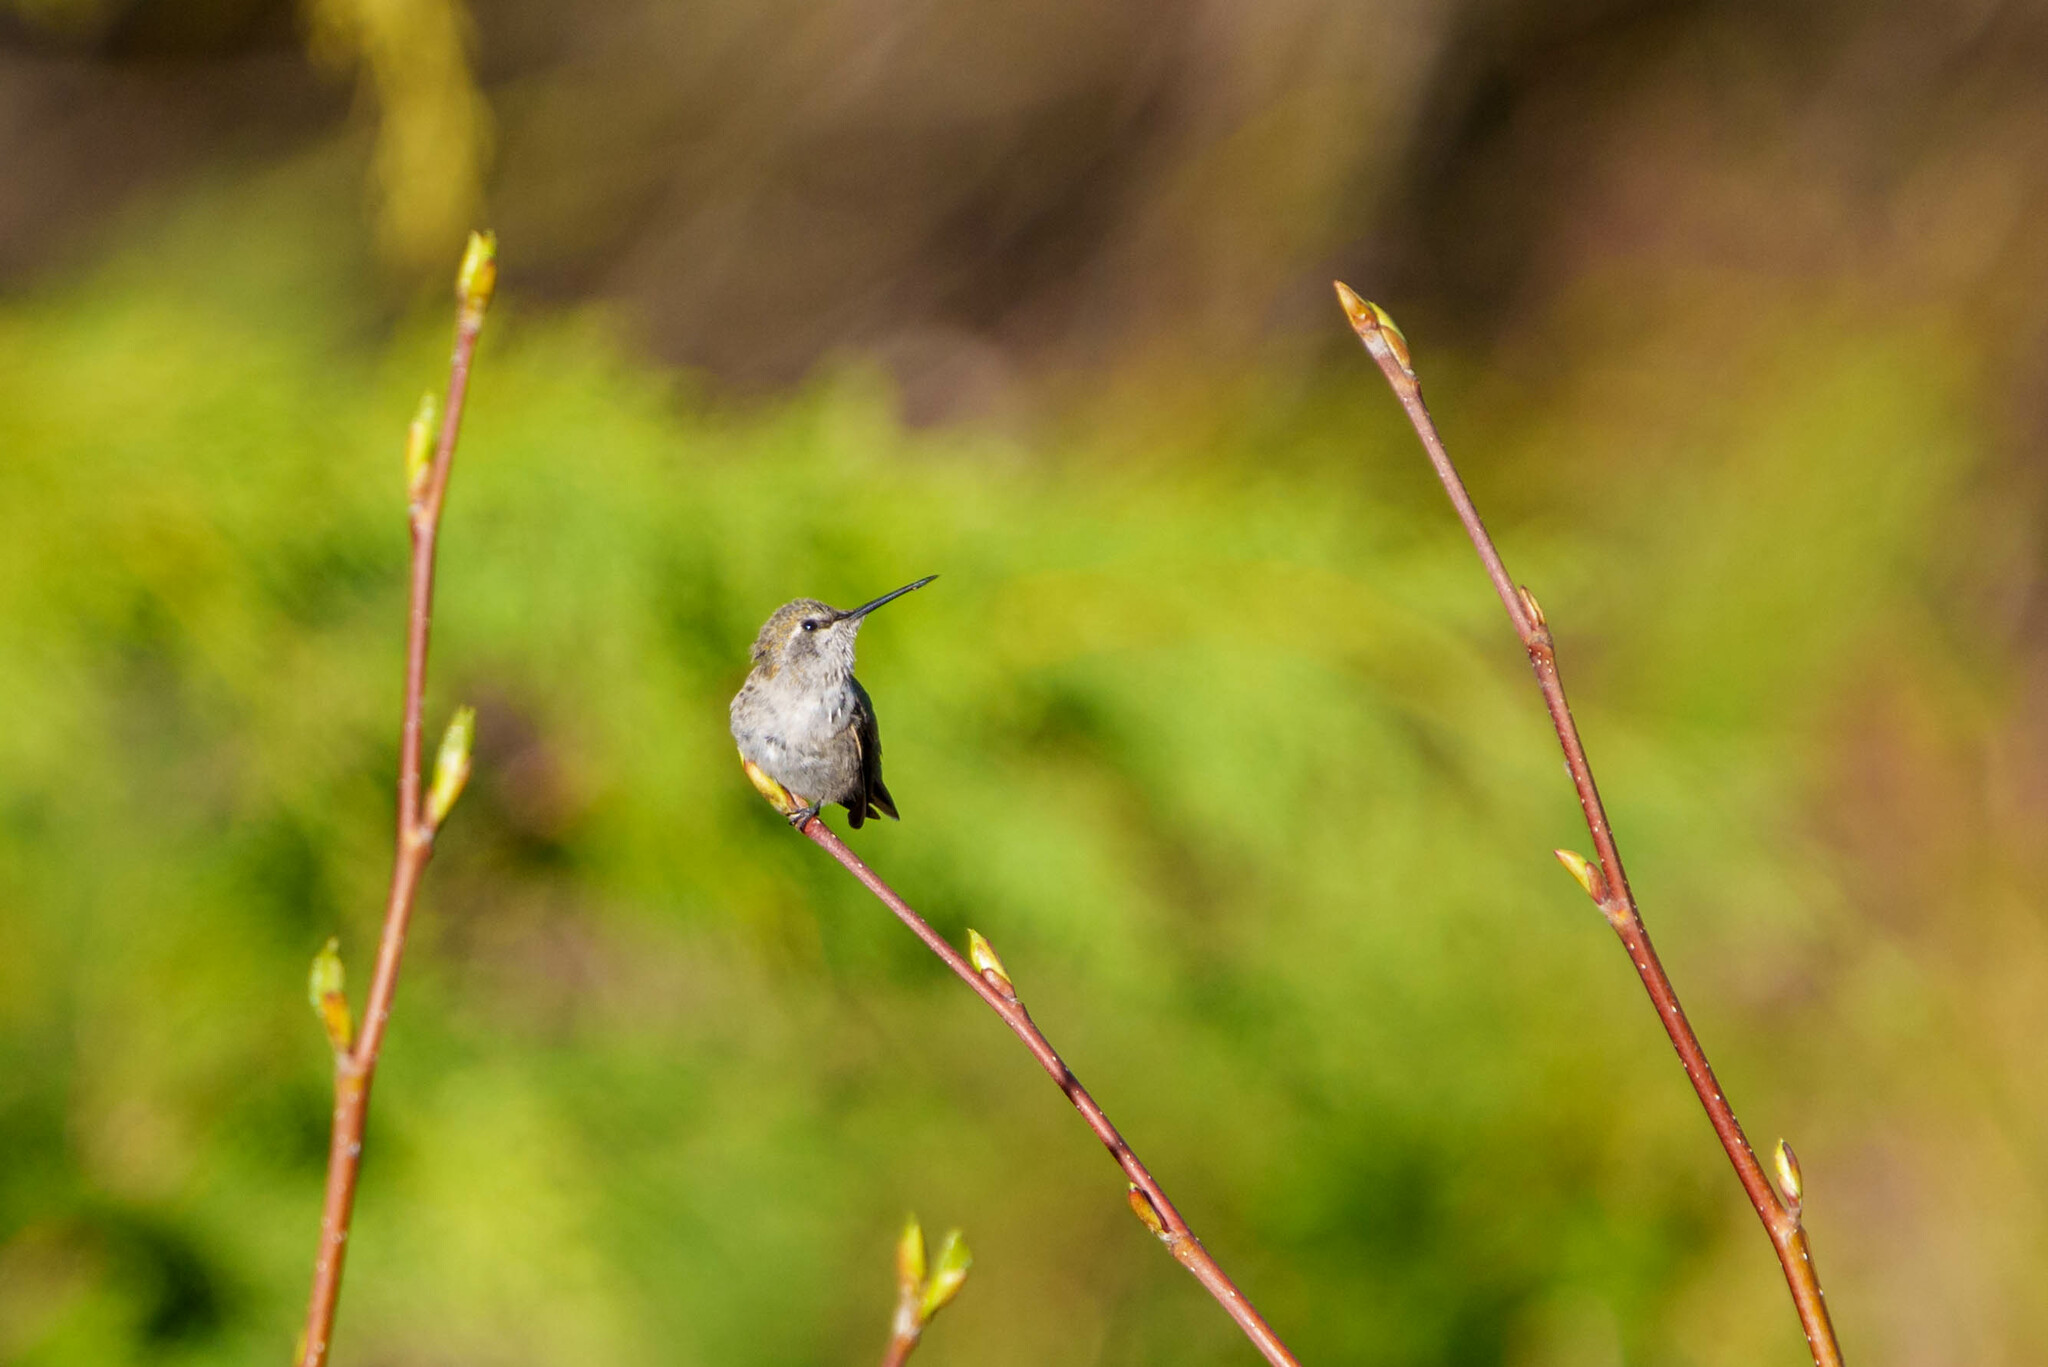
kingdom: Animalia
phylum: Chordata
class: Aves
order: Apodiformes
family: Trochilidae
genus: Calypte
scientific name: Calypte anna
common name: Anna's hummingbird
